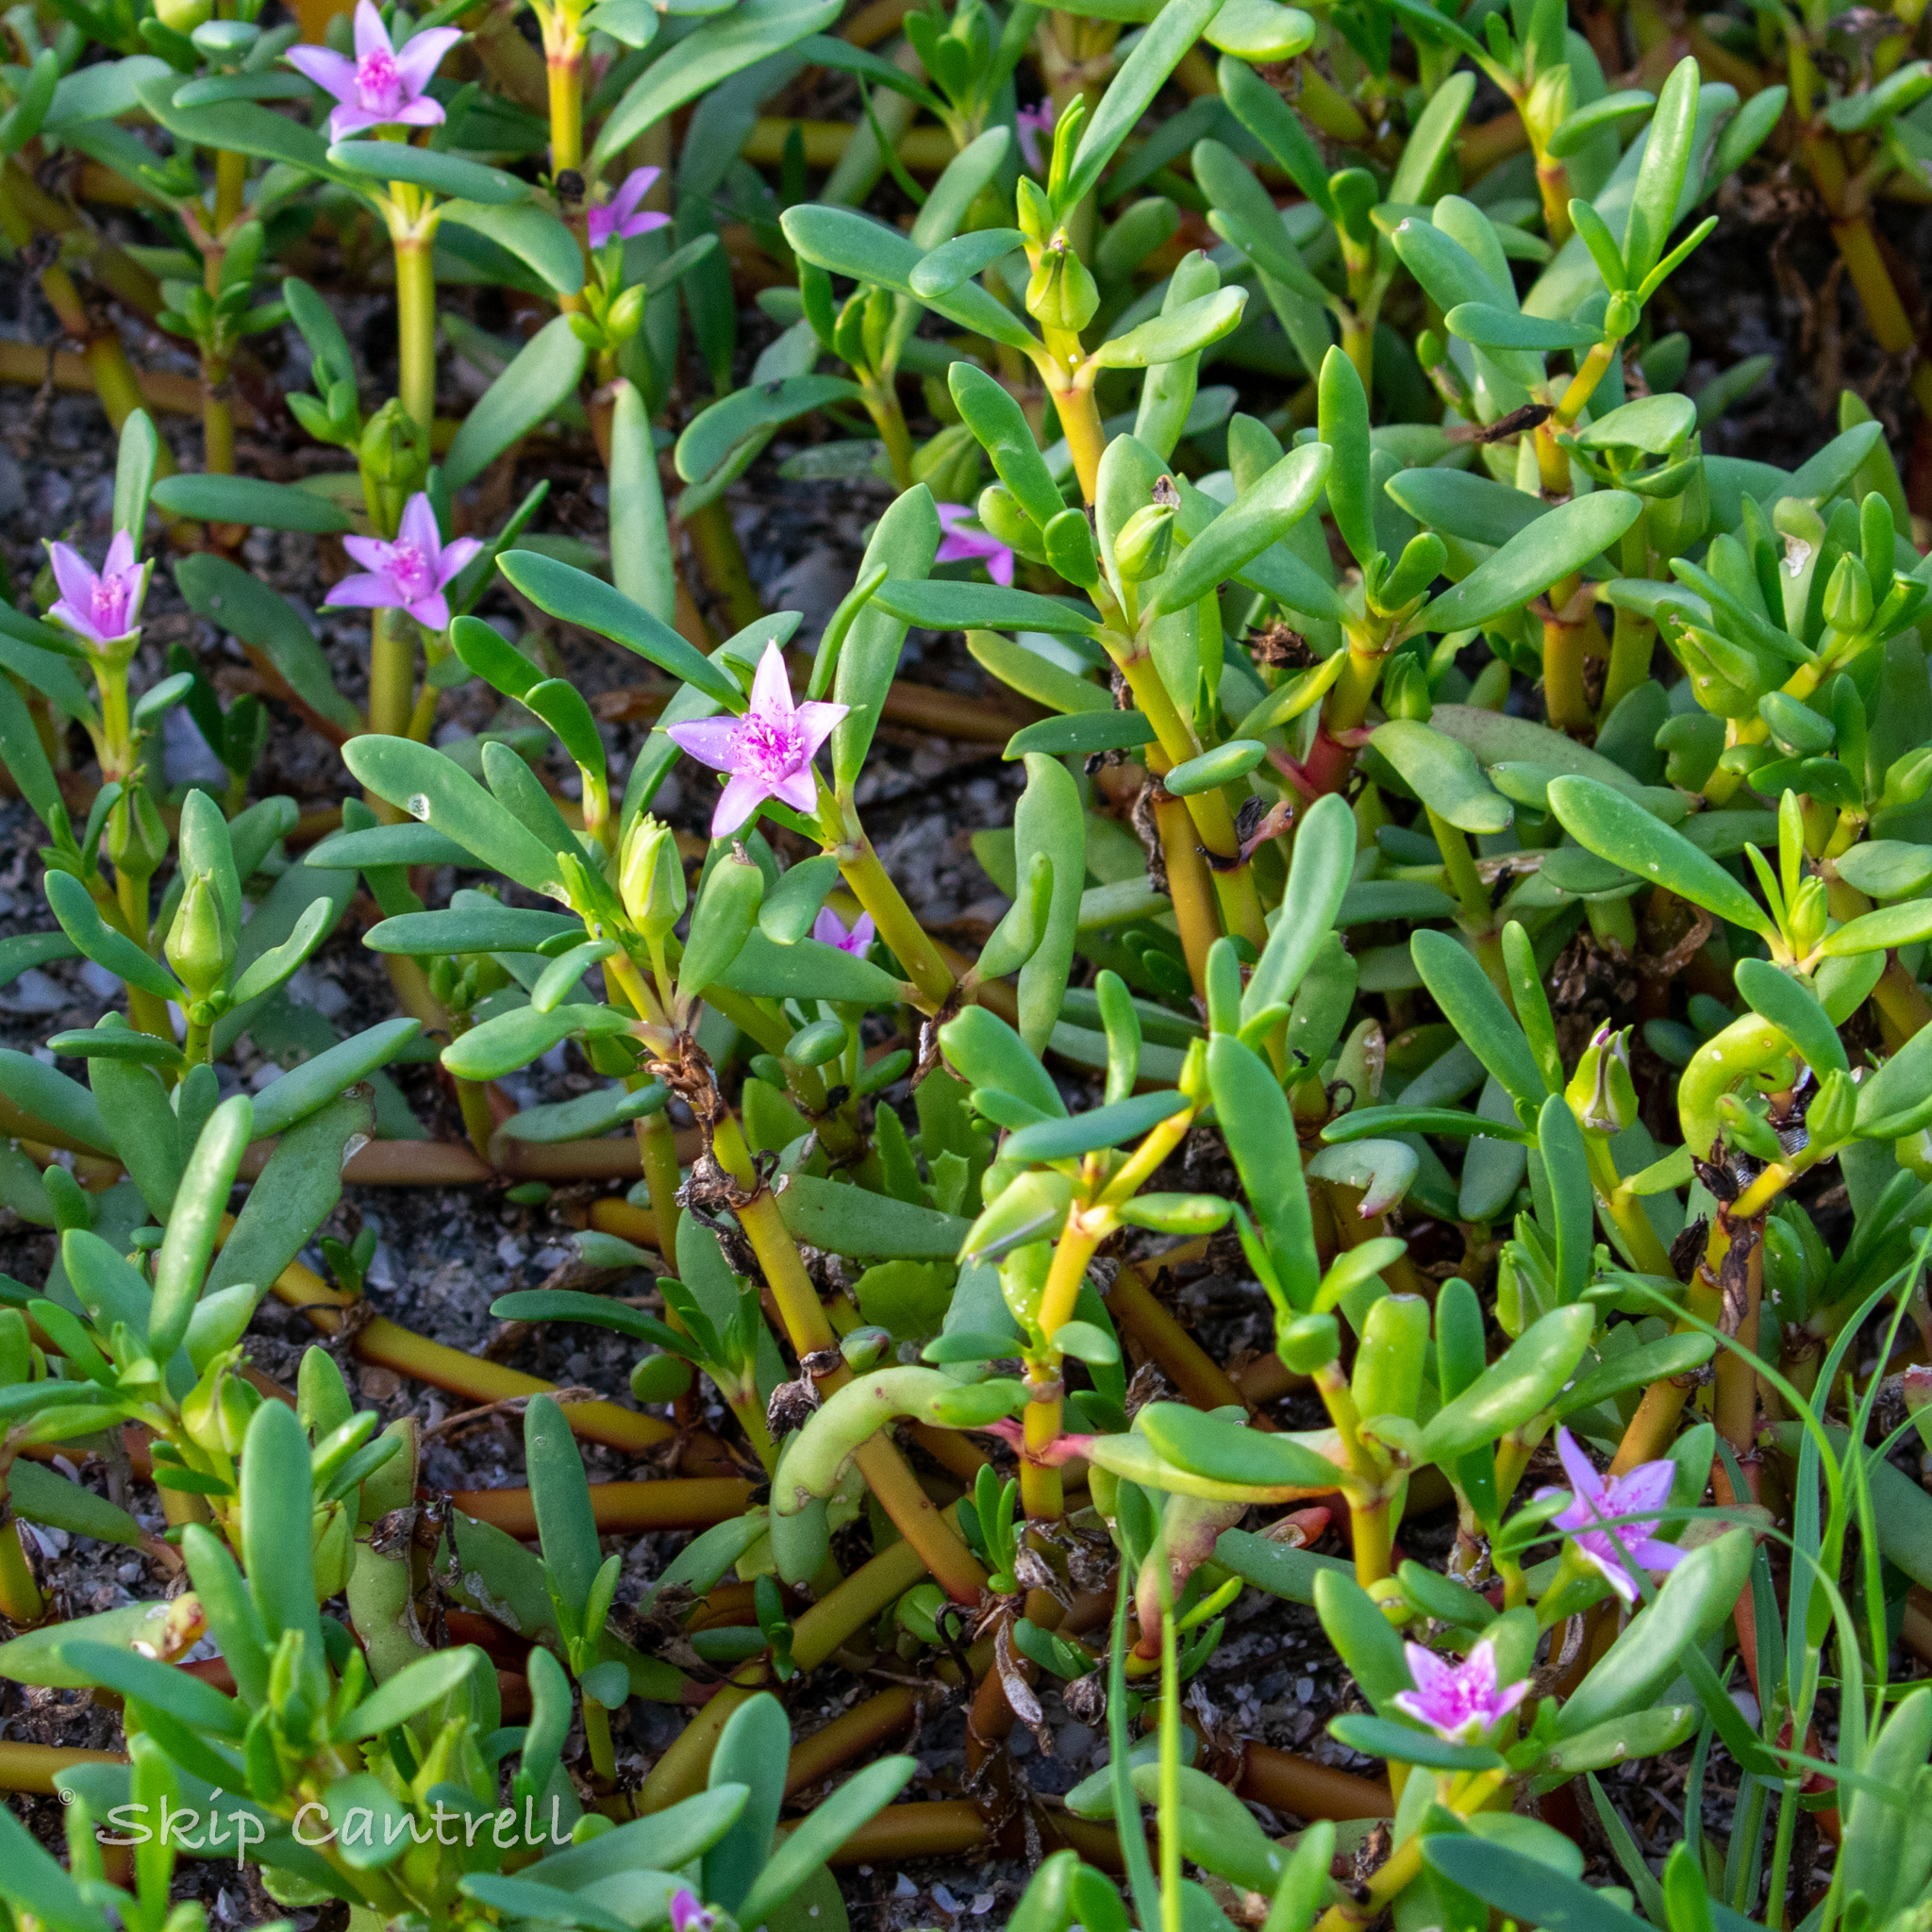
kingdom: Plantae
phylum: Tracheophyta
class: Magnoliopsida
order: Caryophyllales
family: Aizoaceae
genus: Sesuvium
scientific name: Sesuvium portulacastrum
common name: Sea-purslane
